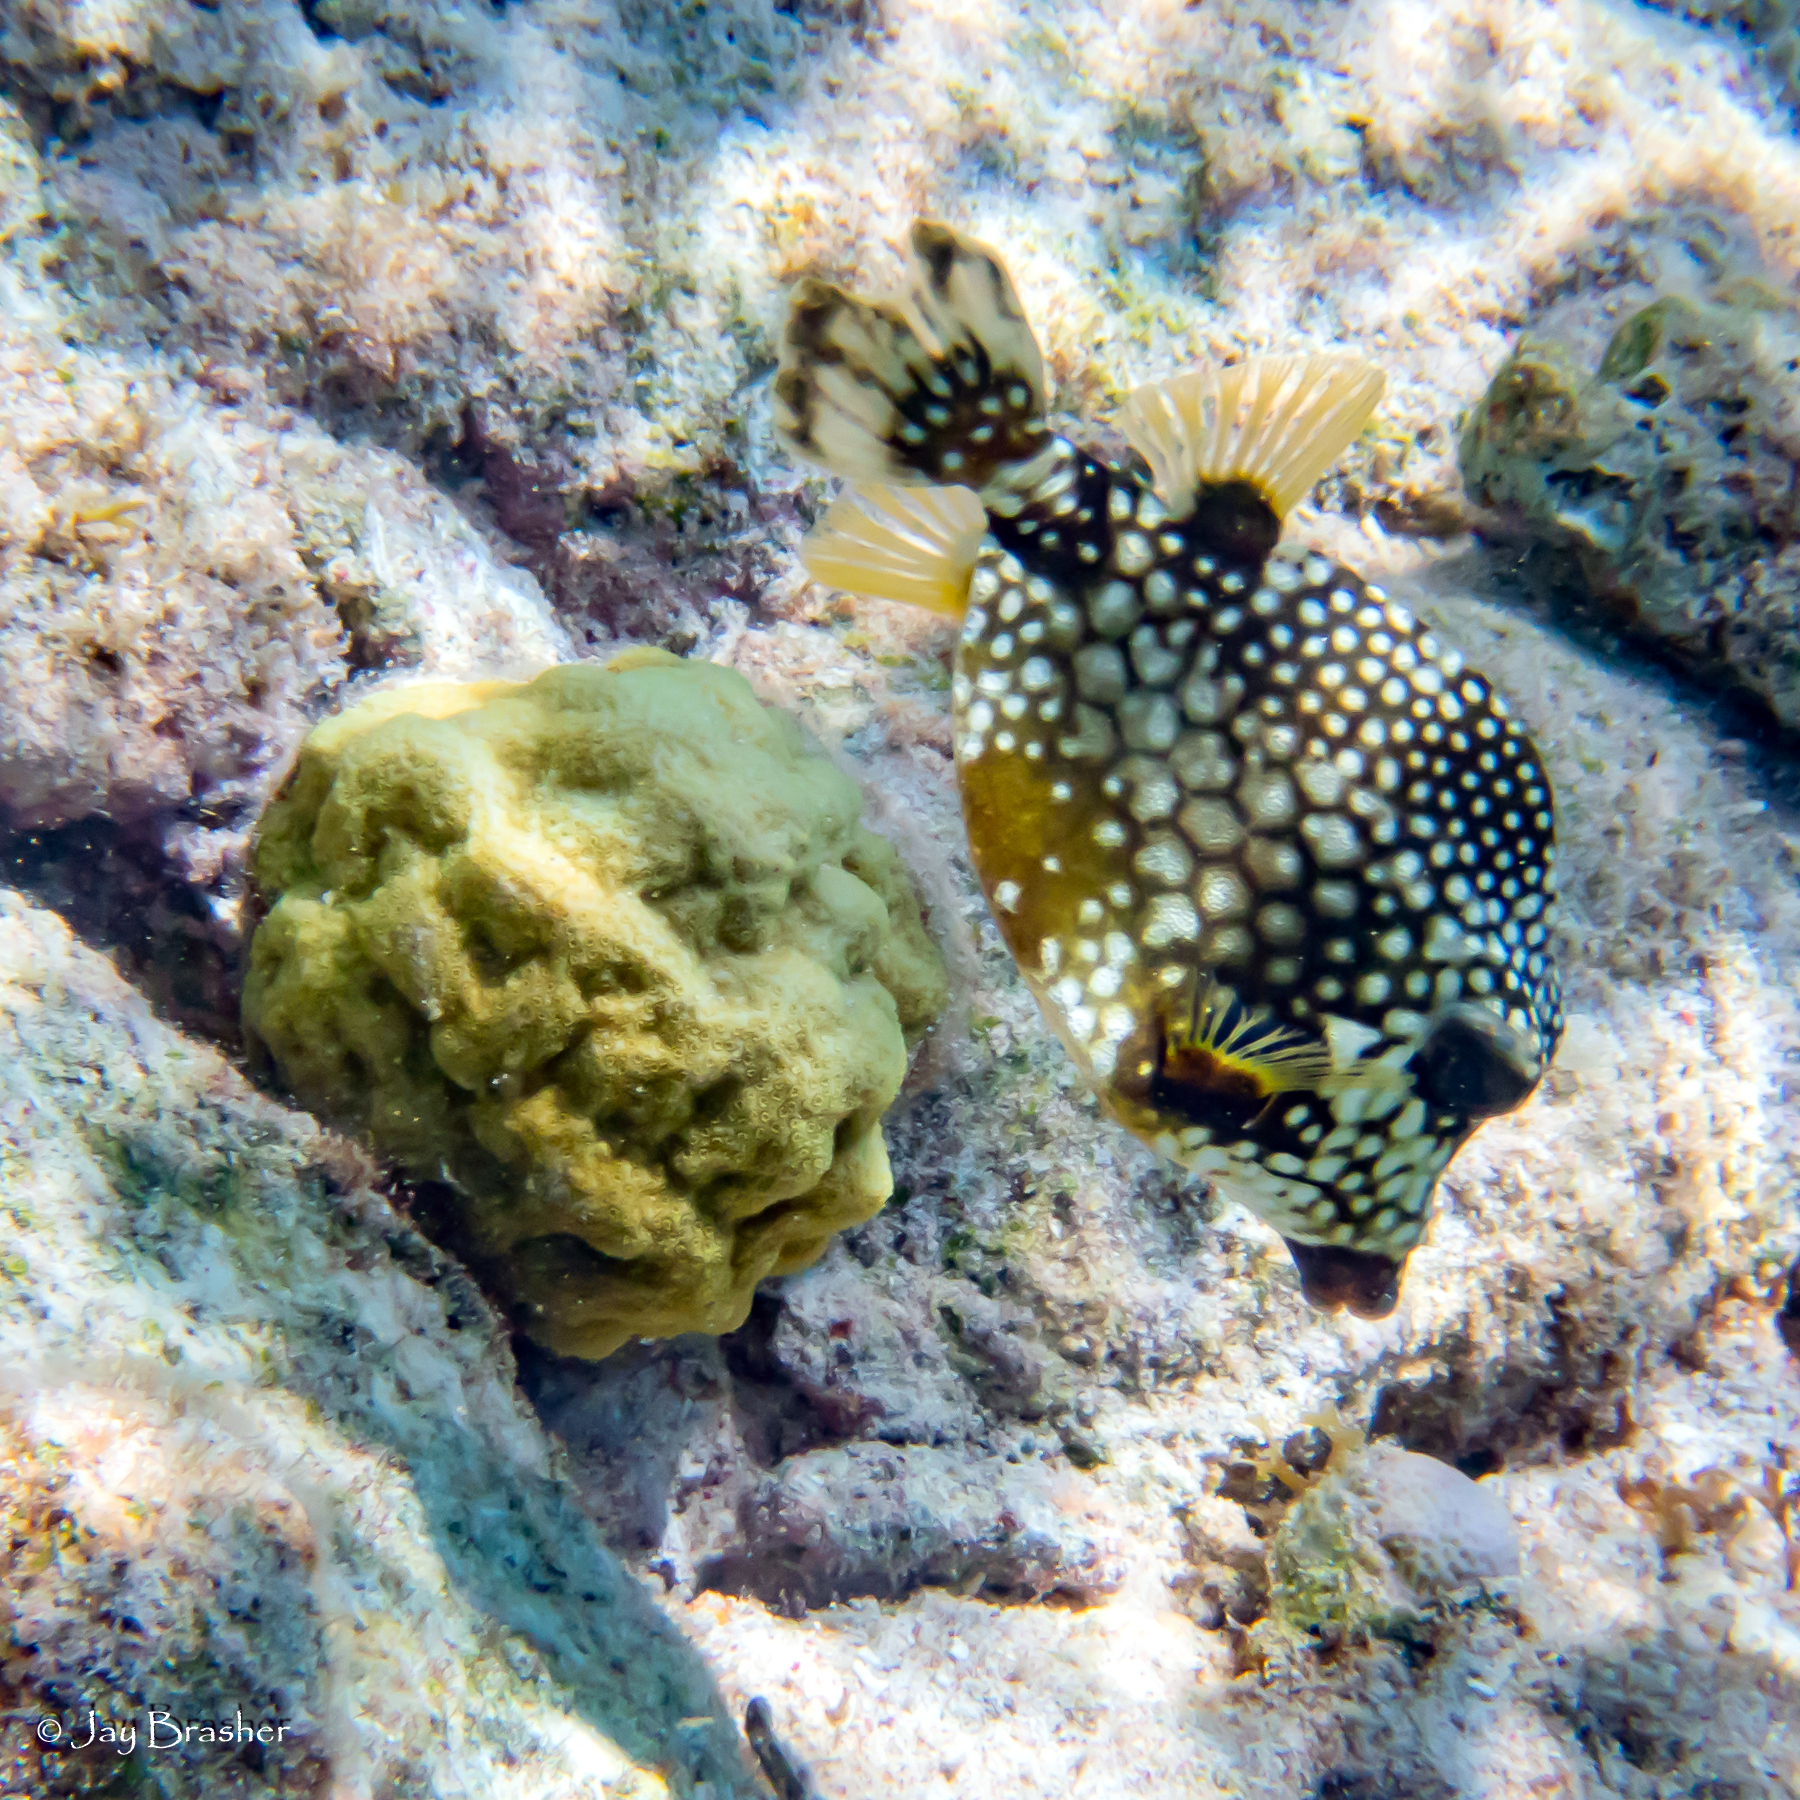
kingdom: Animalia
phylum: Chordata
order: Tetraodontiformes
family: Ostraciidae
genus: Lactophrys
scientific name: Lactophrys triqueter
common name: Smooth trunkfish
